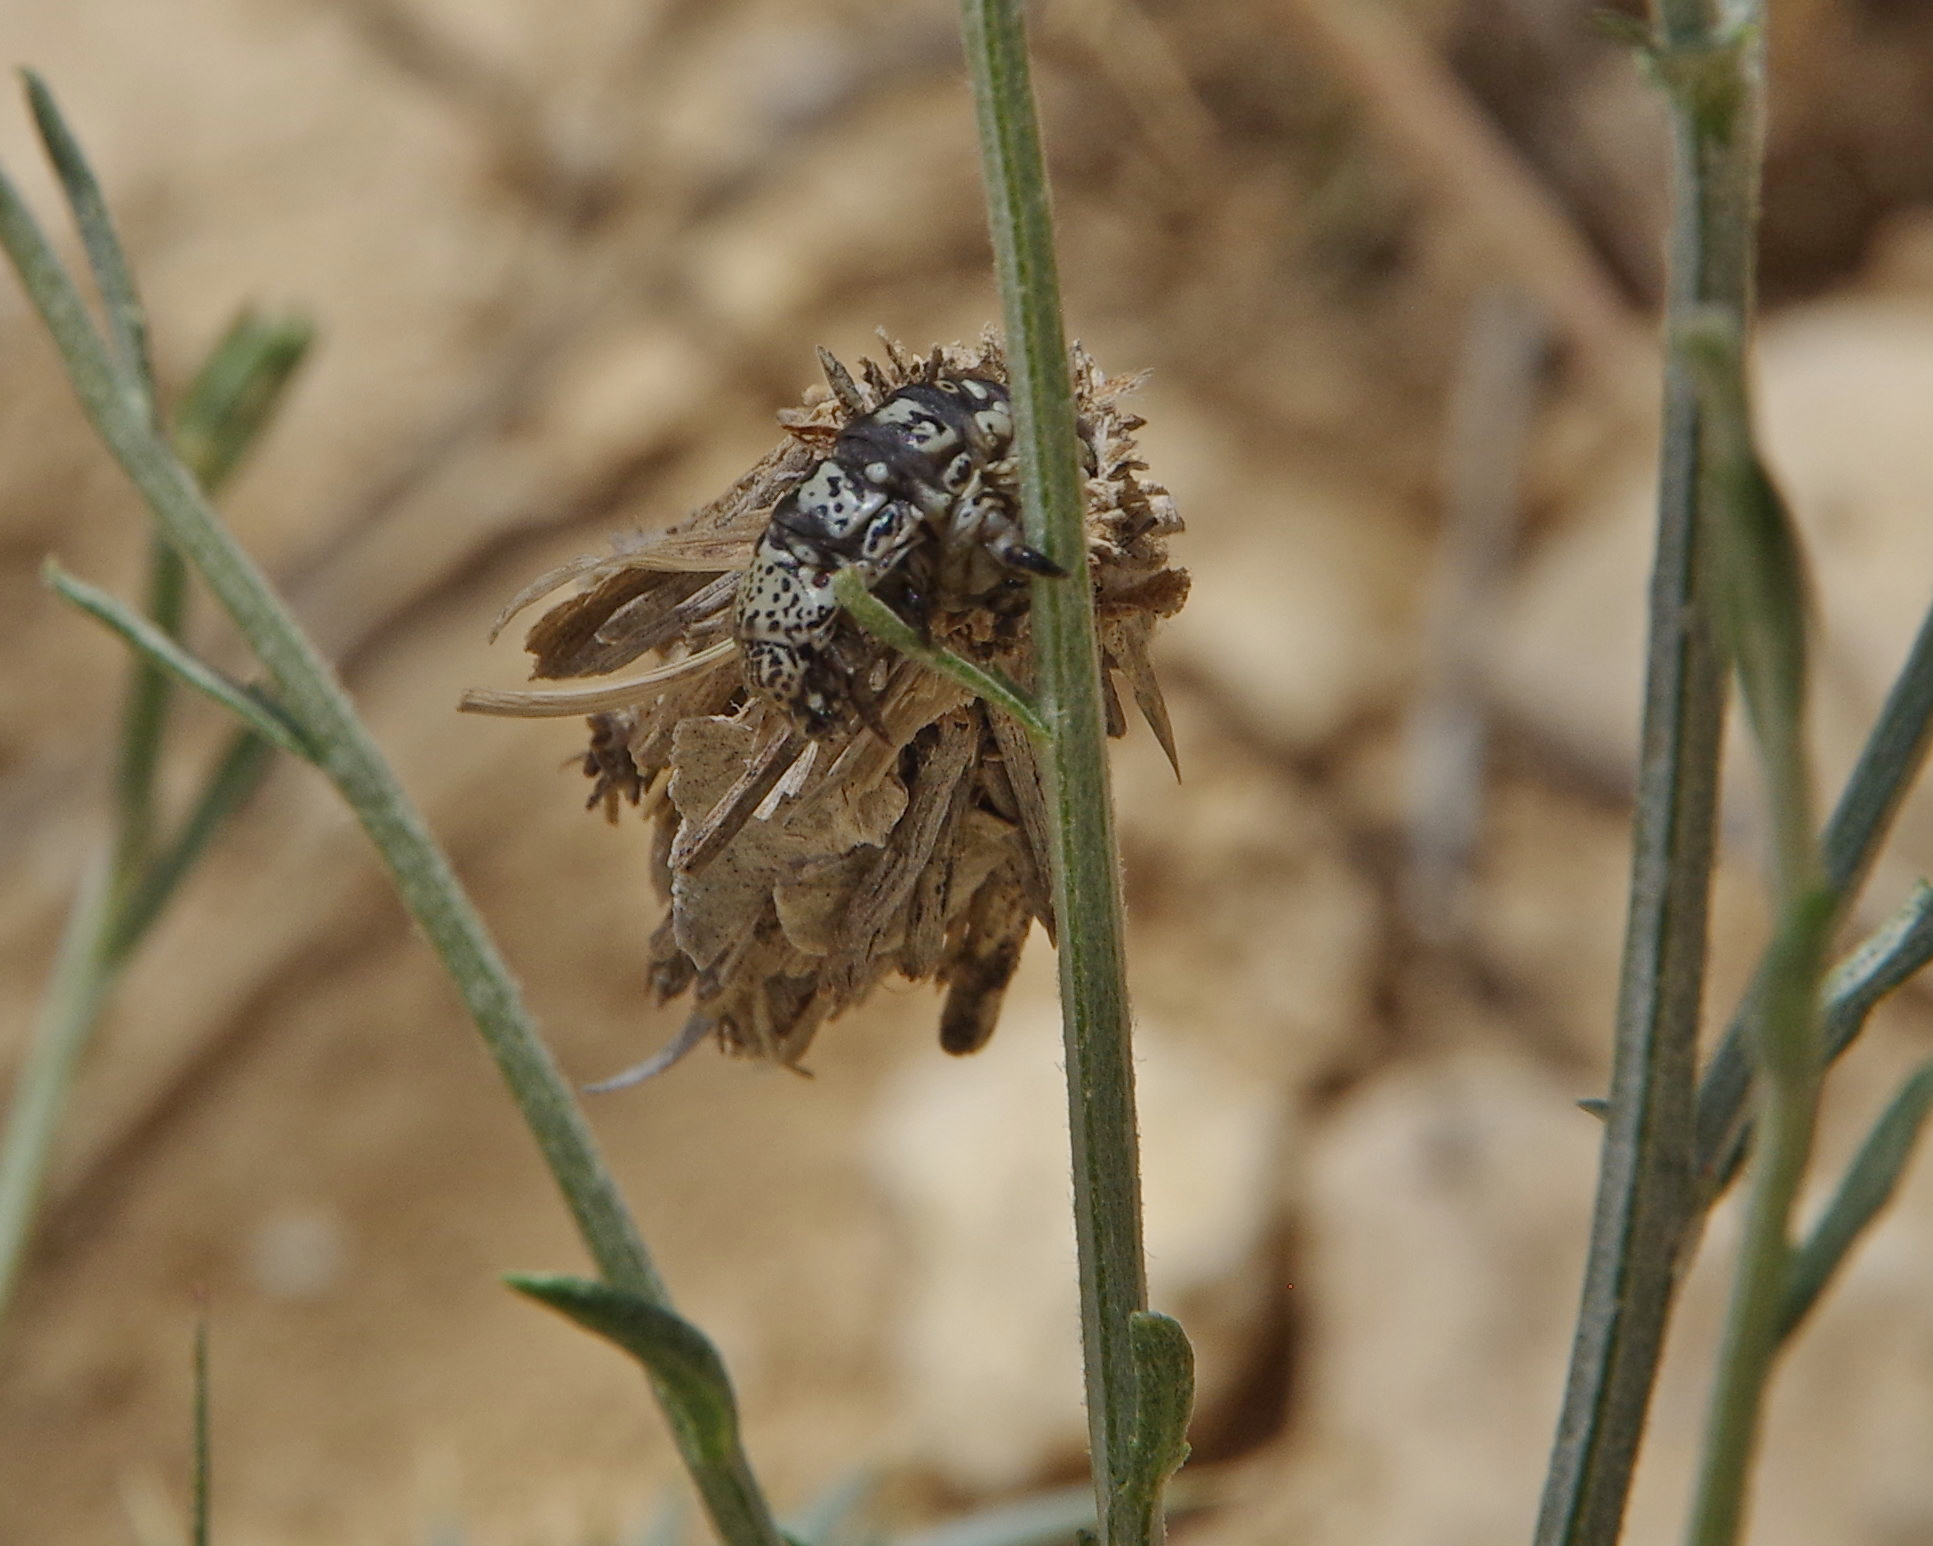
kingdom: Animalia
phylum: Arthropoda
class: Insecta
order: Lepidoptera
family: Psychidae
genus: Oiketicoides
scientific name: Oiketicoides lutea
